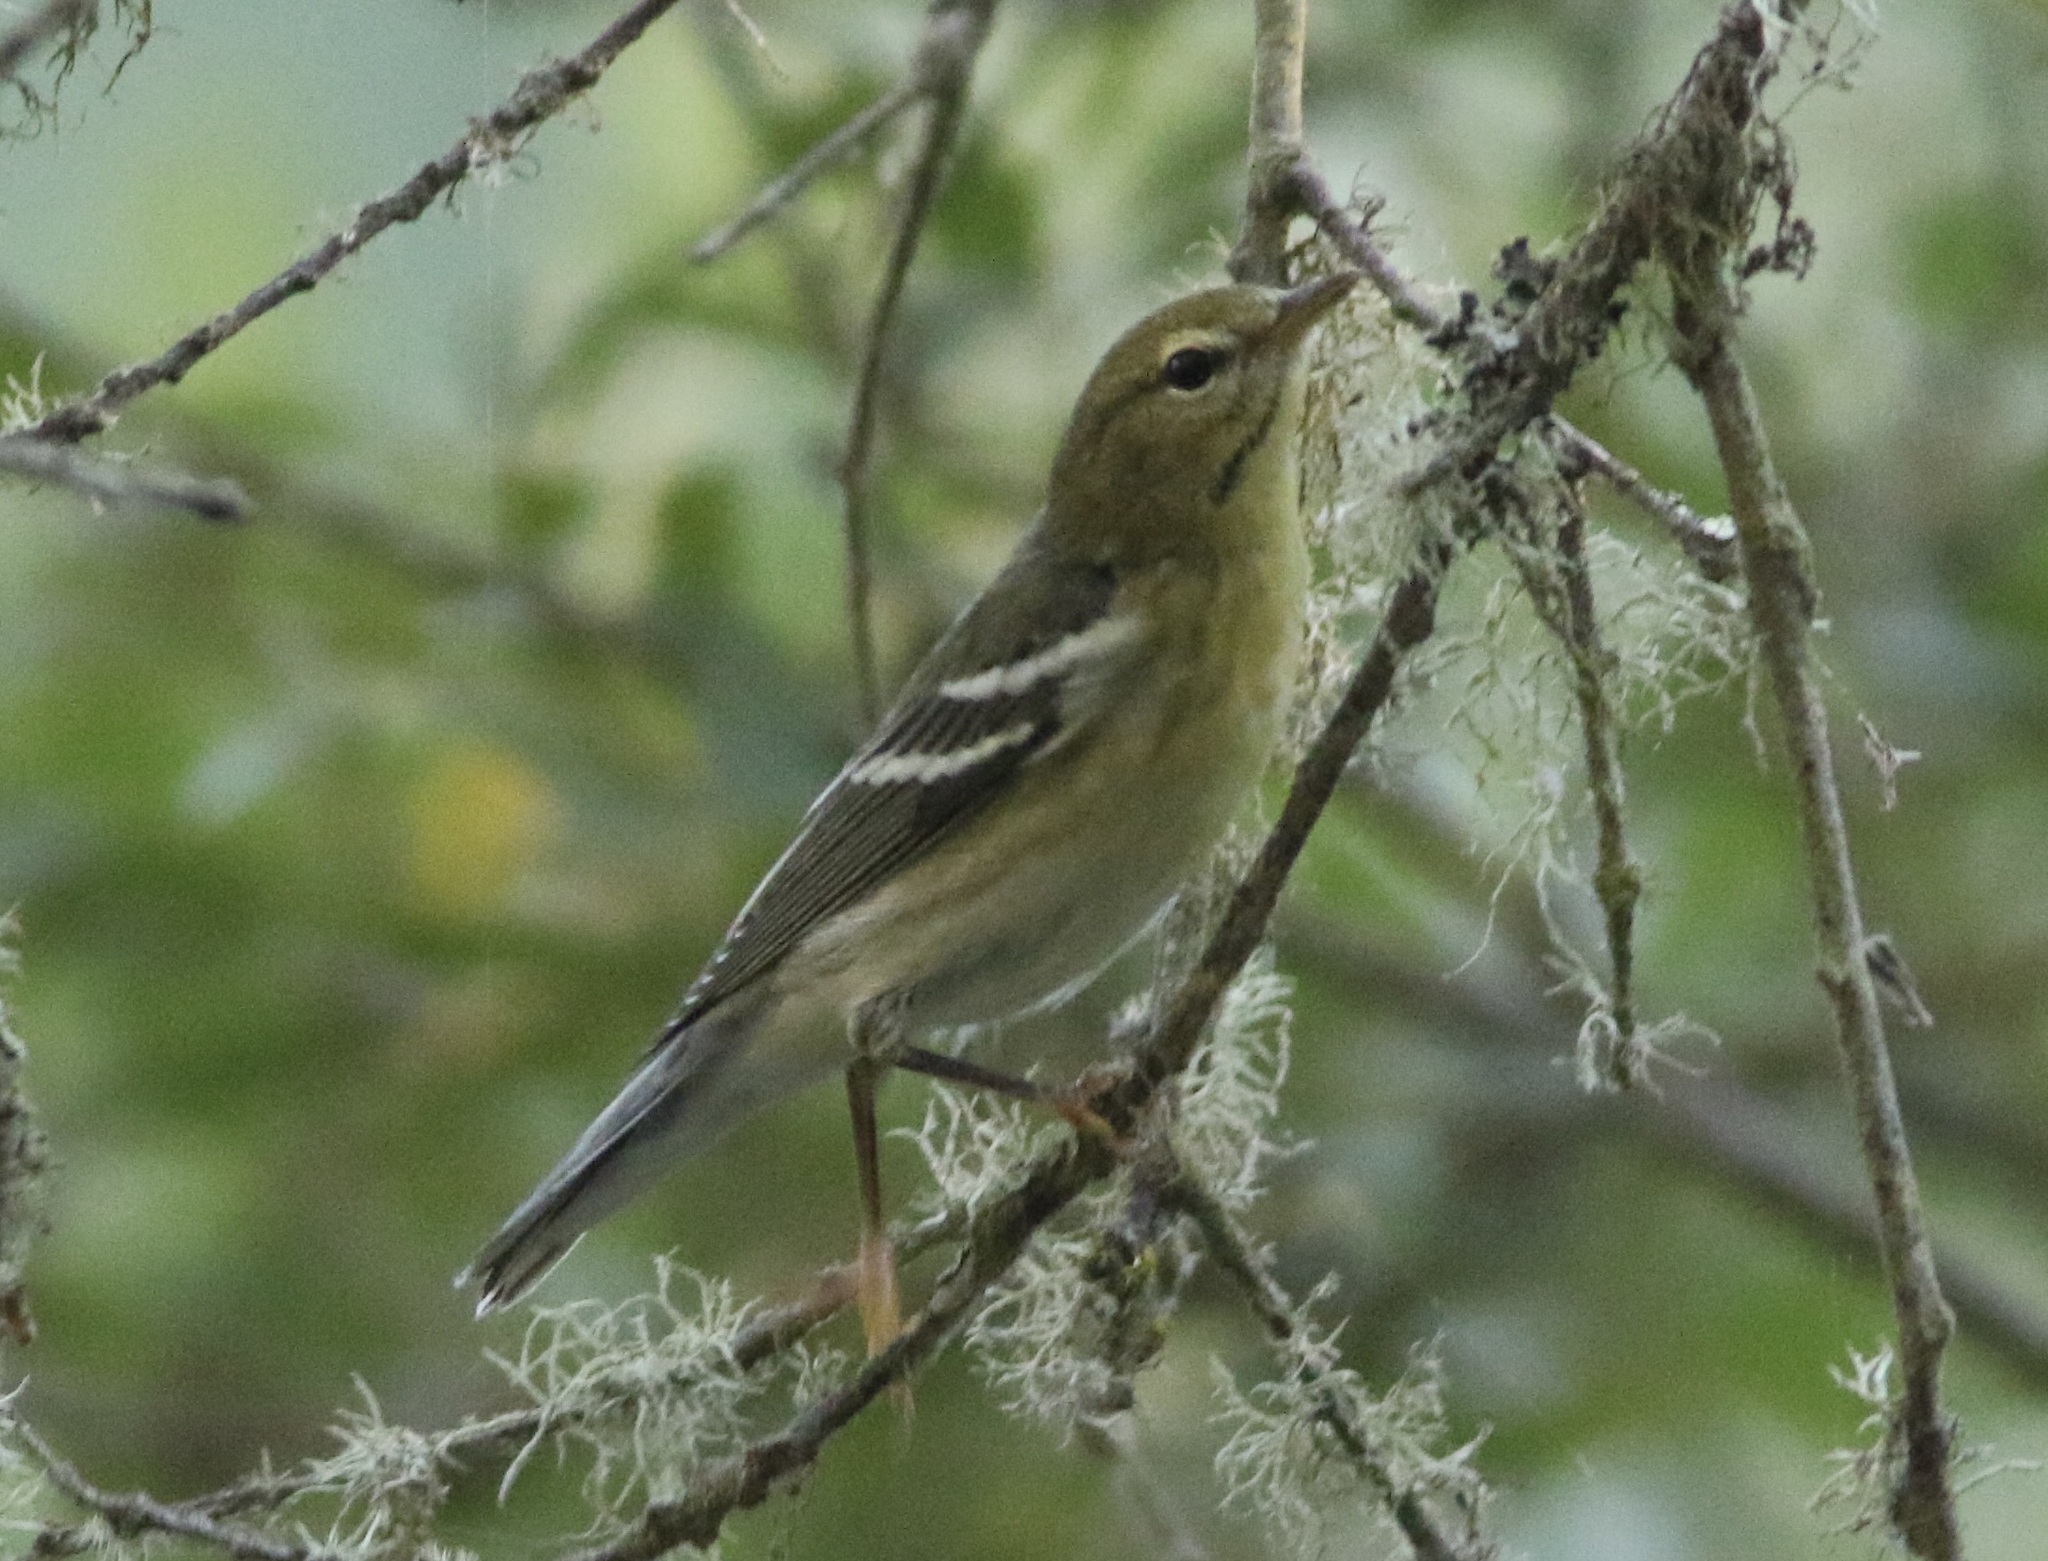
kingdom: Animalia
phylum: Chordata
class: Aves
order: Passeriformes
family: Parulidae
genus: Setophaga
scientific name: Setophaga striata
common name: Blackpoll warbler
